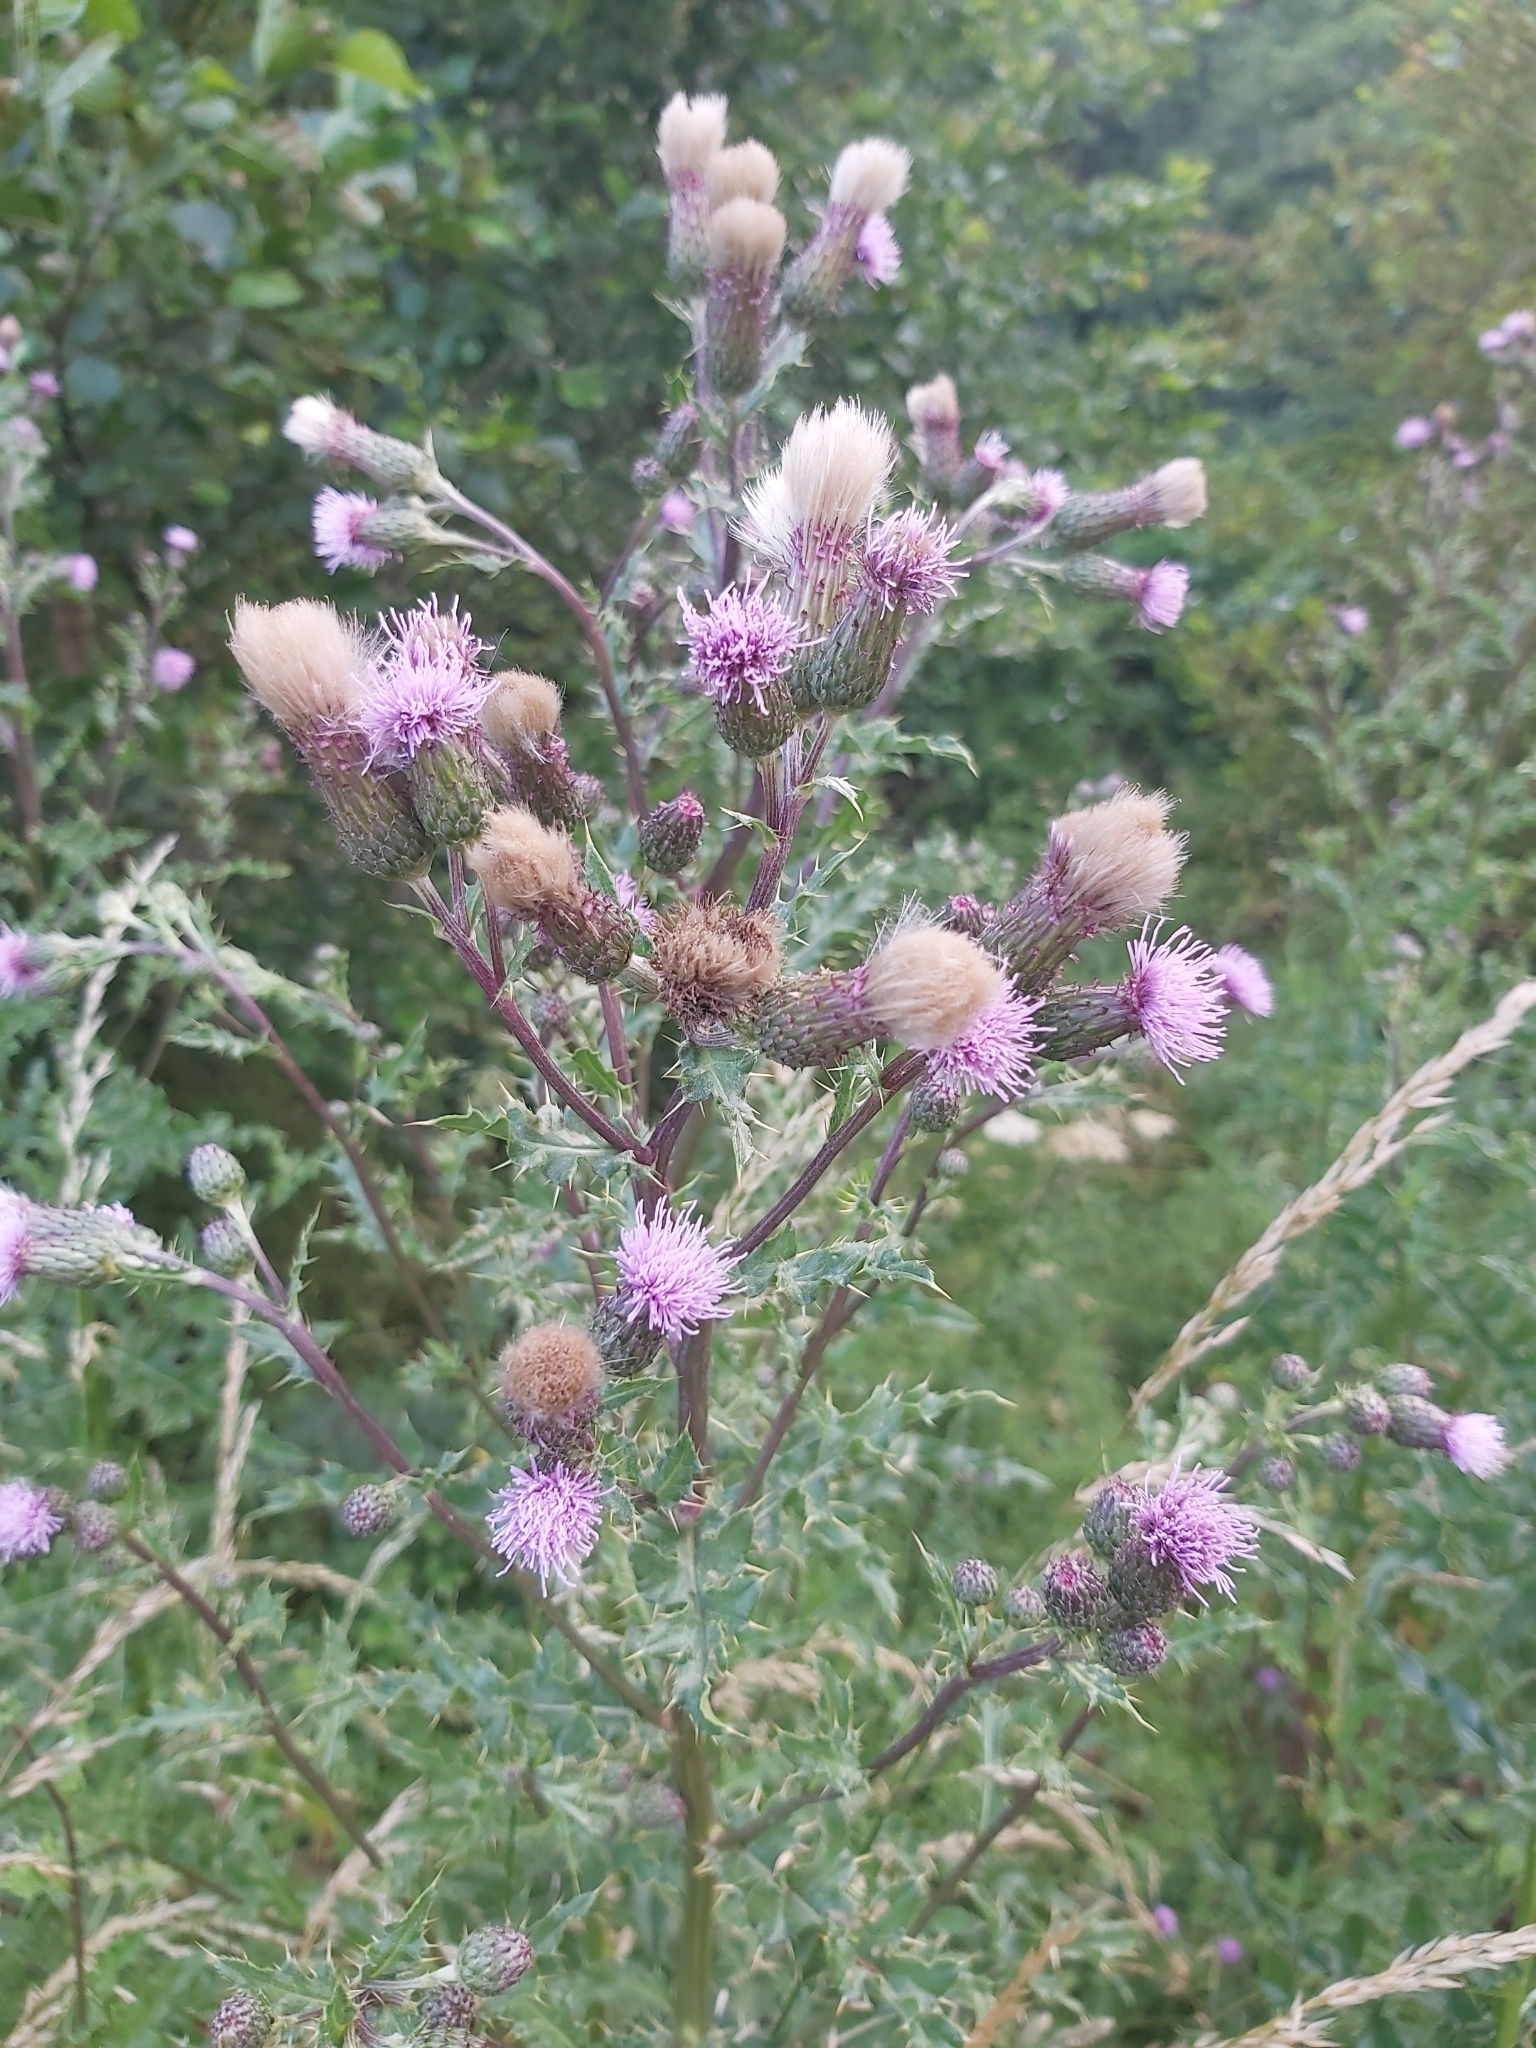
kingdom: Plantae
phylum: Tracheophyta
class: Magnoliopsida
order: Asterales
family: Asteraceae
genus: Cirsium
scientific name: Cirsium arvense
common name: Creeping thistle
